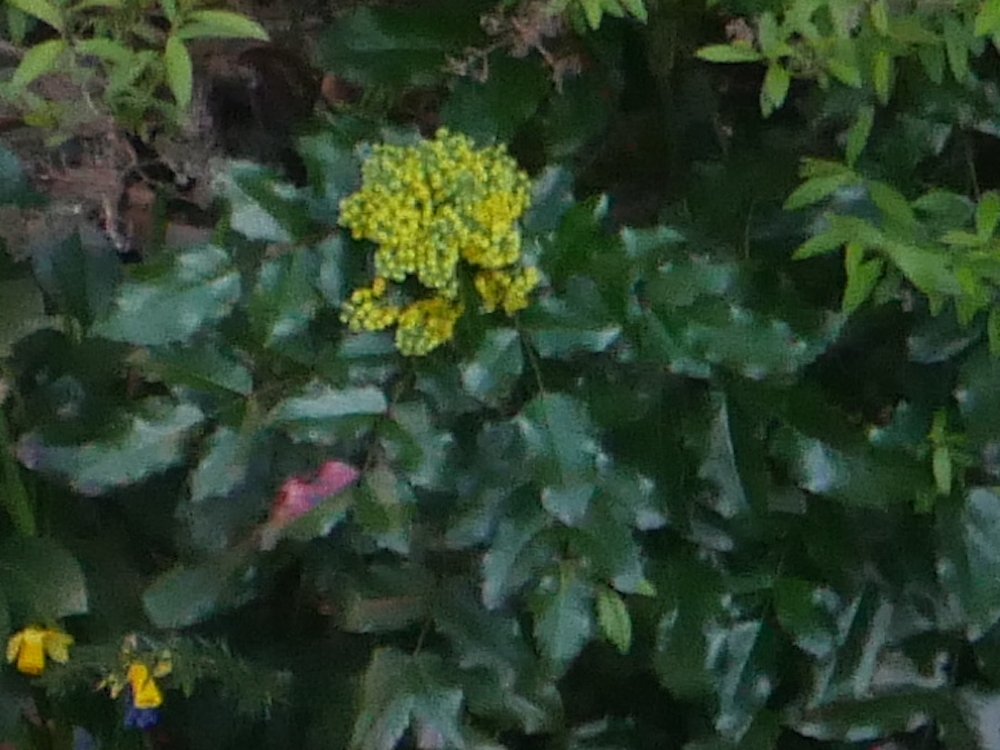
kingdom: Plantae
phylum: Tracheophyta
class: Magnoliopsida
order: Ranunculales
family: Berberidaceae
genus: Mahonia
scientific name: Mahonia aquifolium
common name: Oregon-grape
